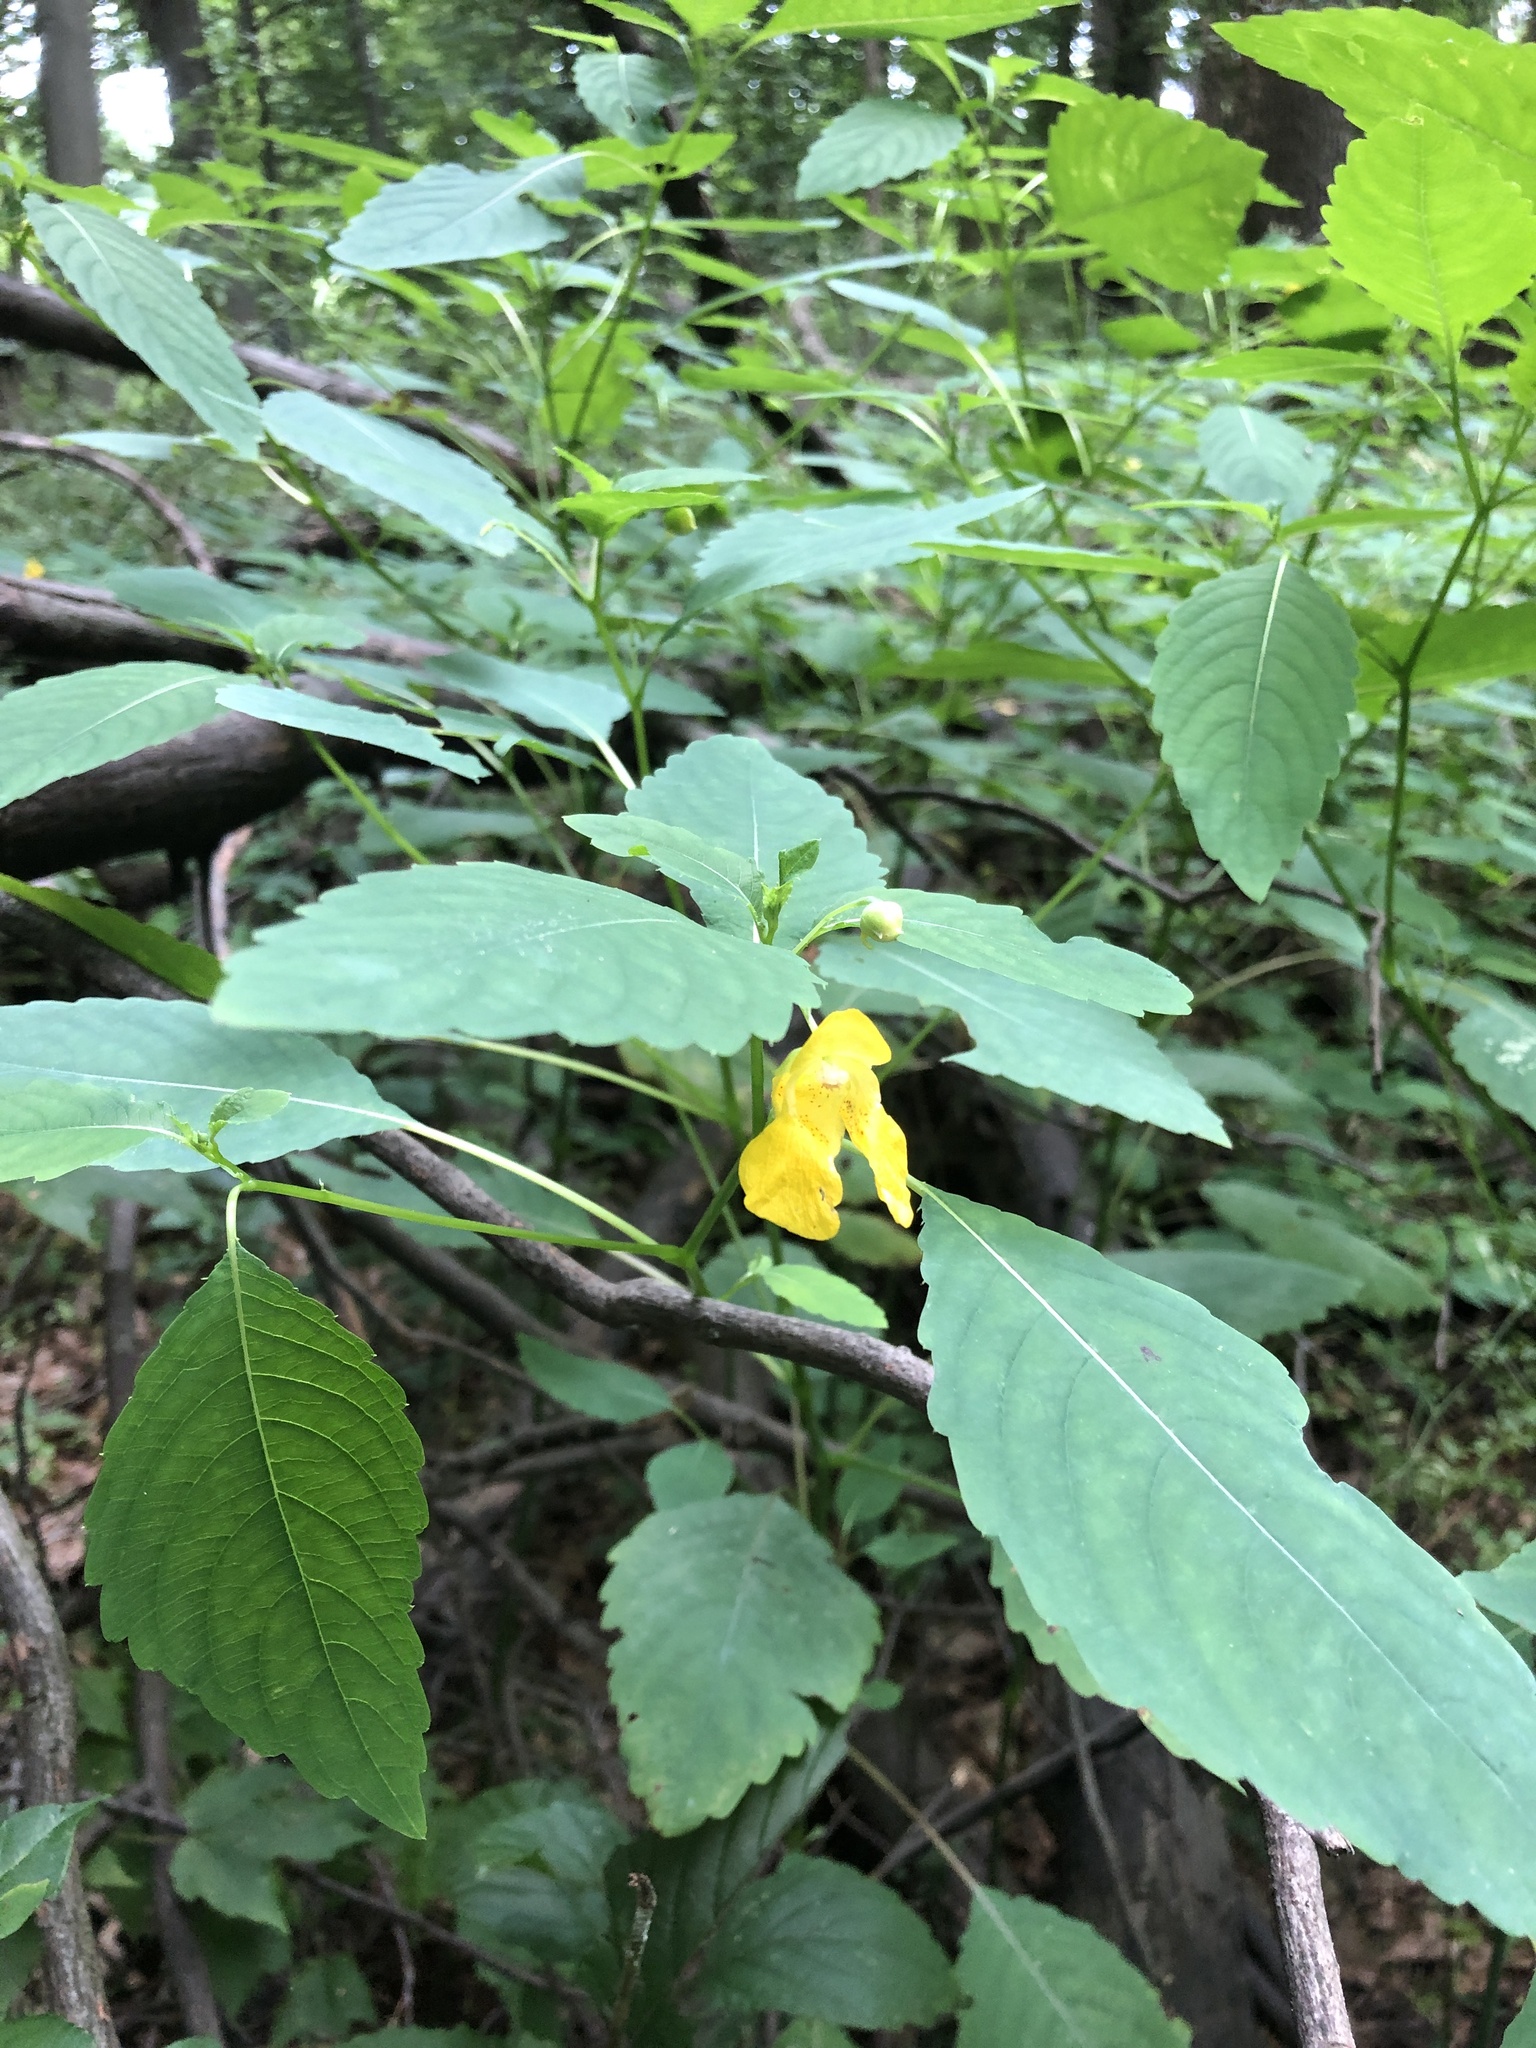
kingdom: Plantae
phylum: Tracheophyta
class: Magnoliopsida
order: Ericales
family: Balsaminaceae
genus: Impatiens
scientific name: Impatiens pallida
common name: Pale snapweed
